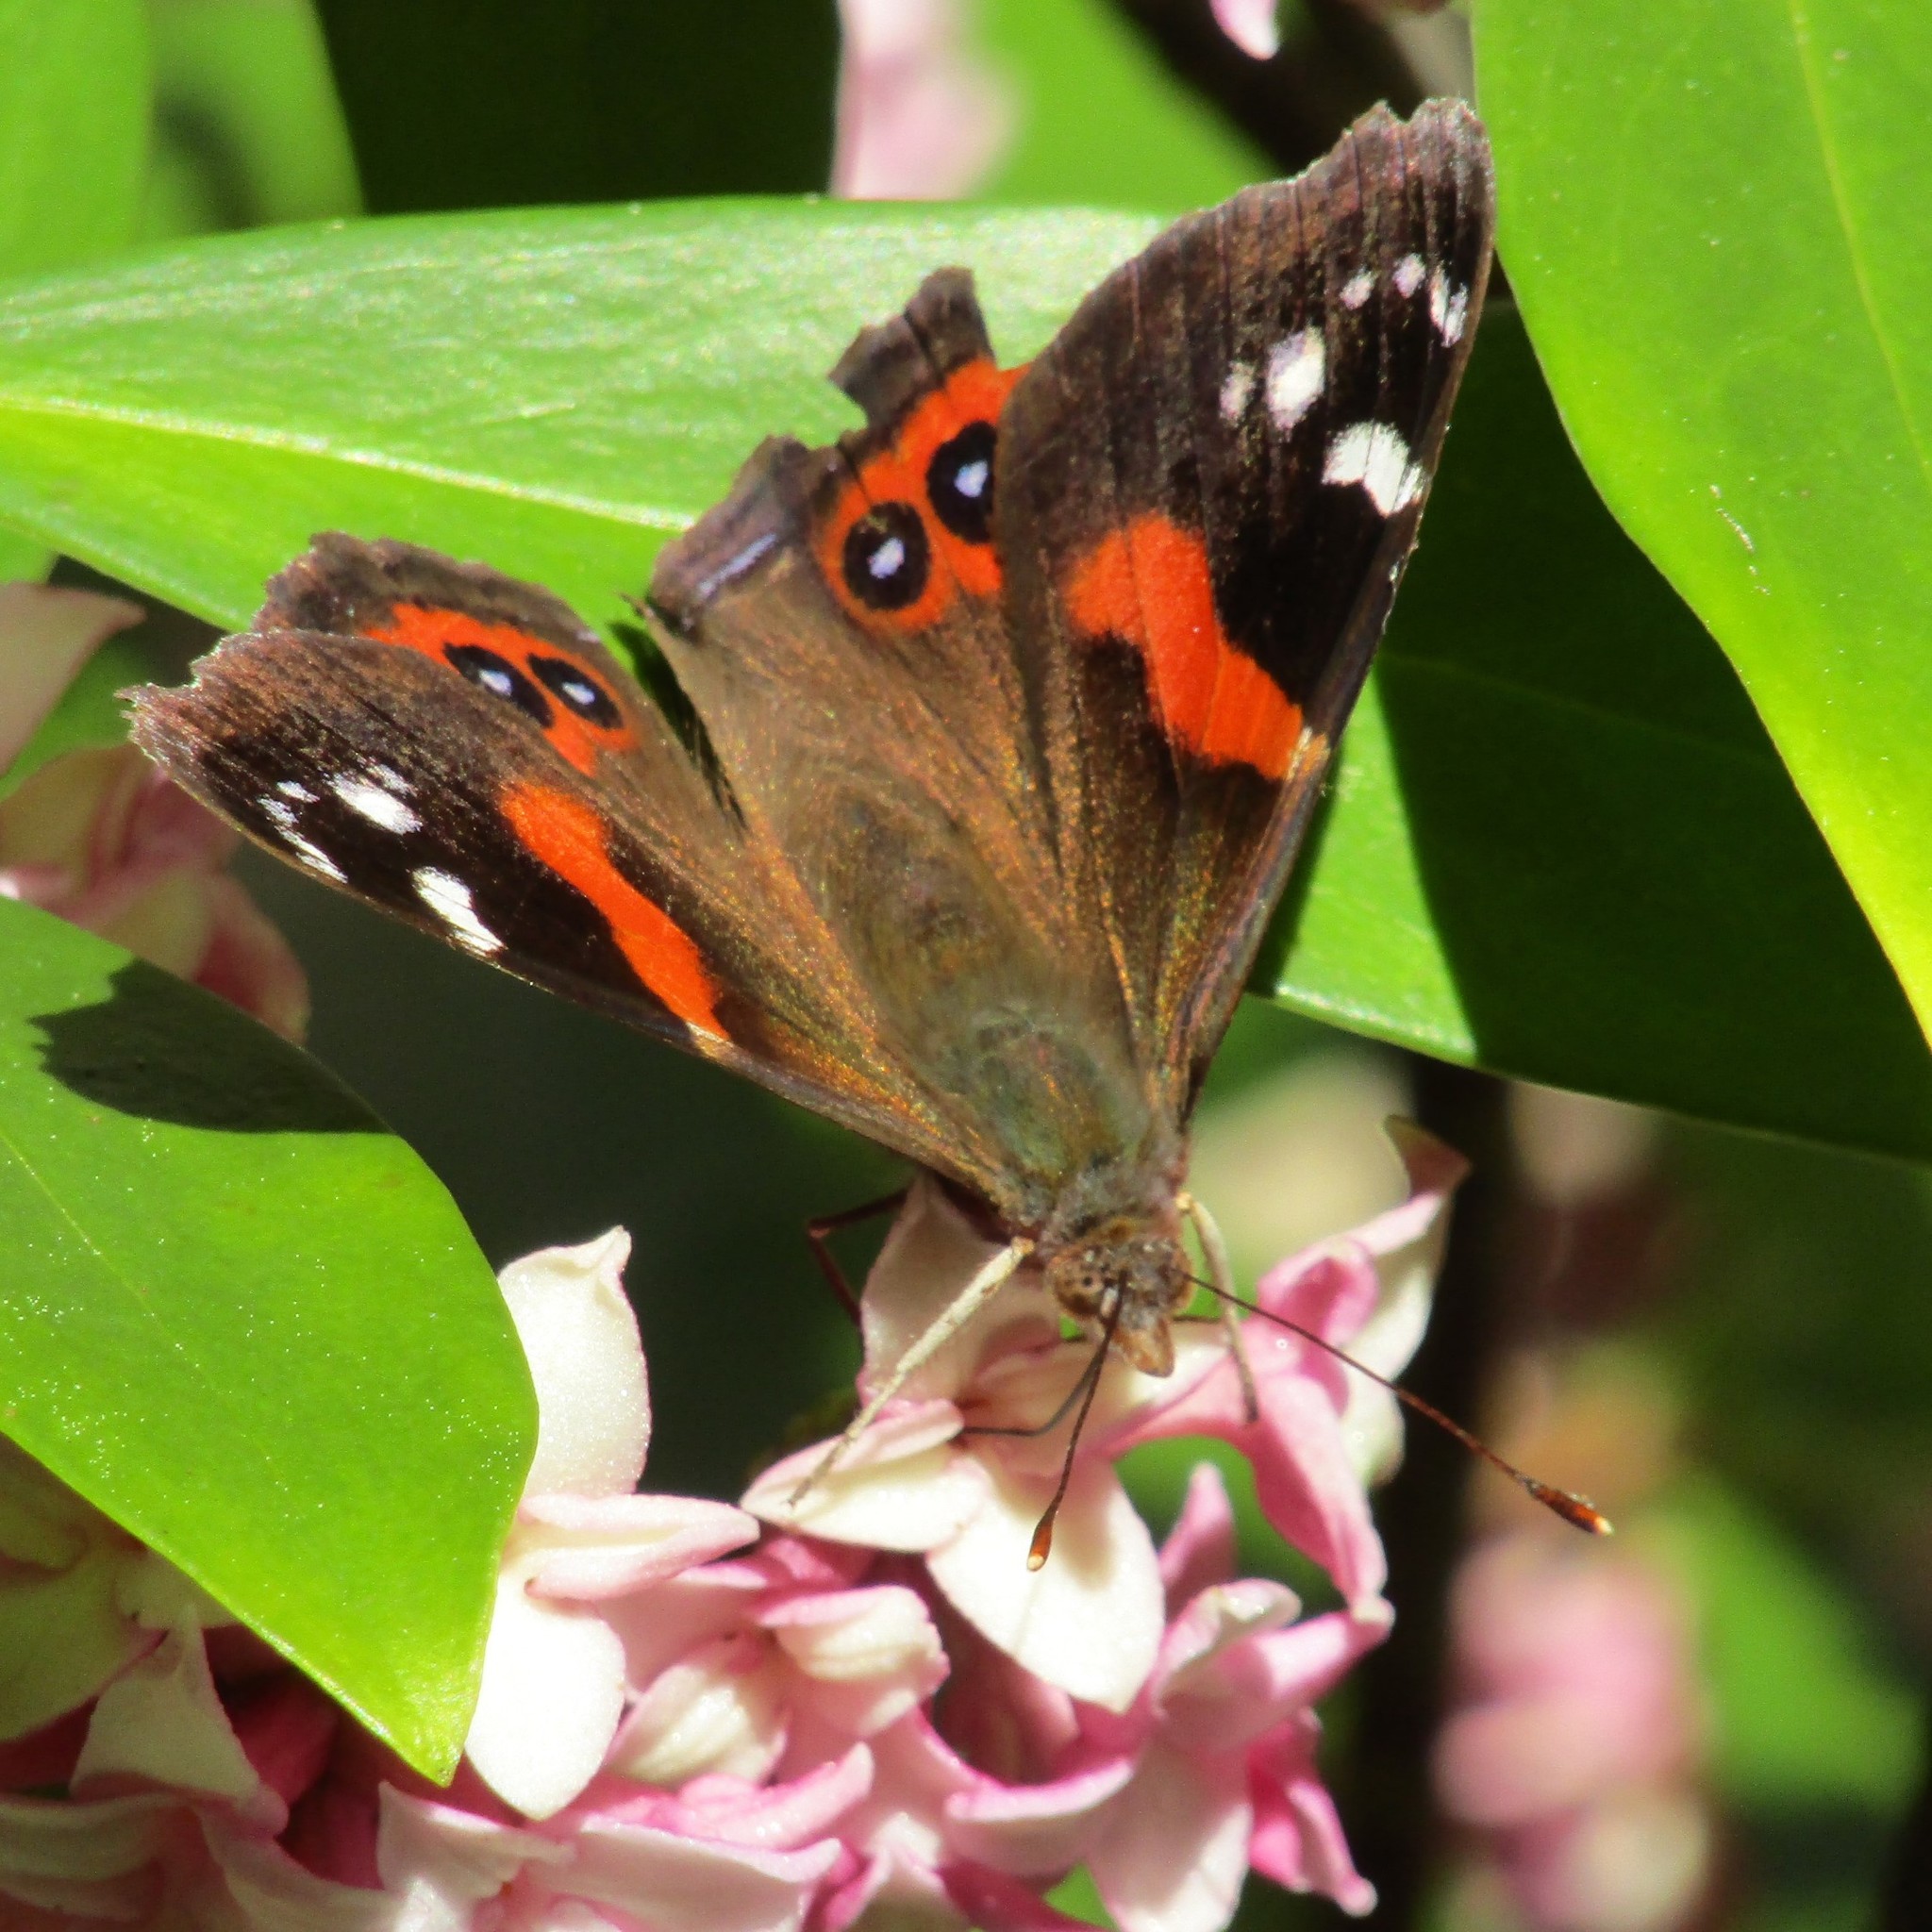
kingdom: Animalia
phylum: Arthropoda
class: Insecta
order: Lepidoptera
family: Nymphalidae
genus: Vanessa
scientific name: Vanessa gonerilla
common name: New zealand red admiral
